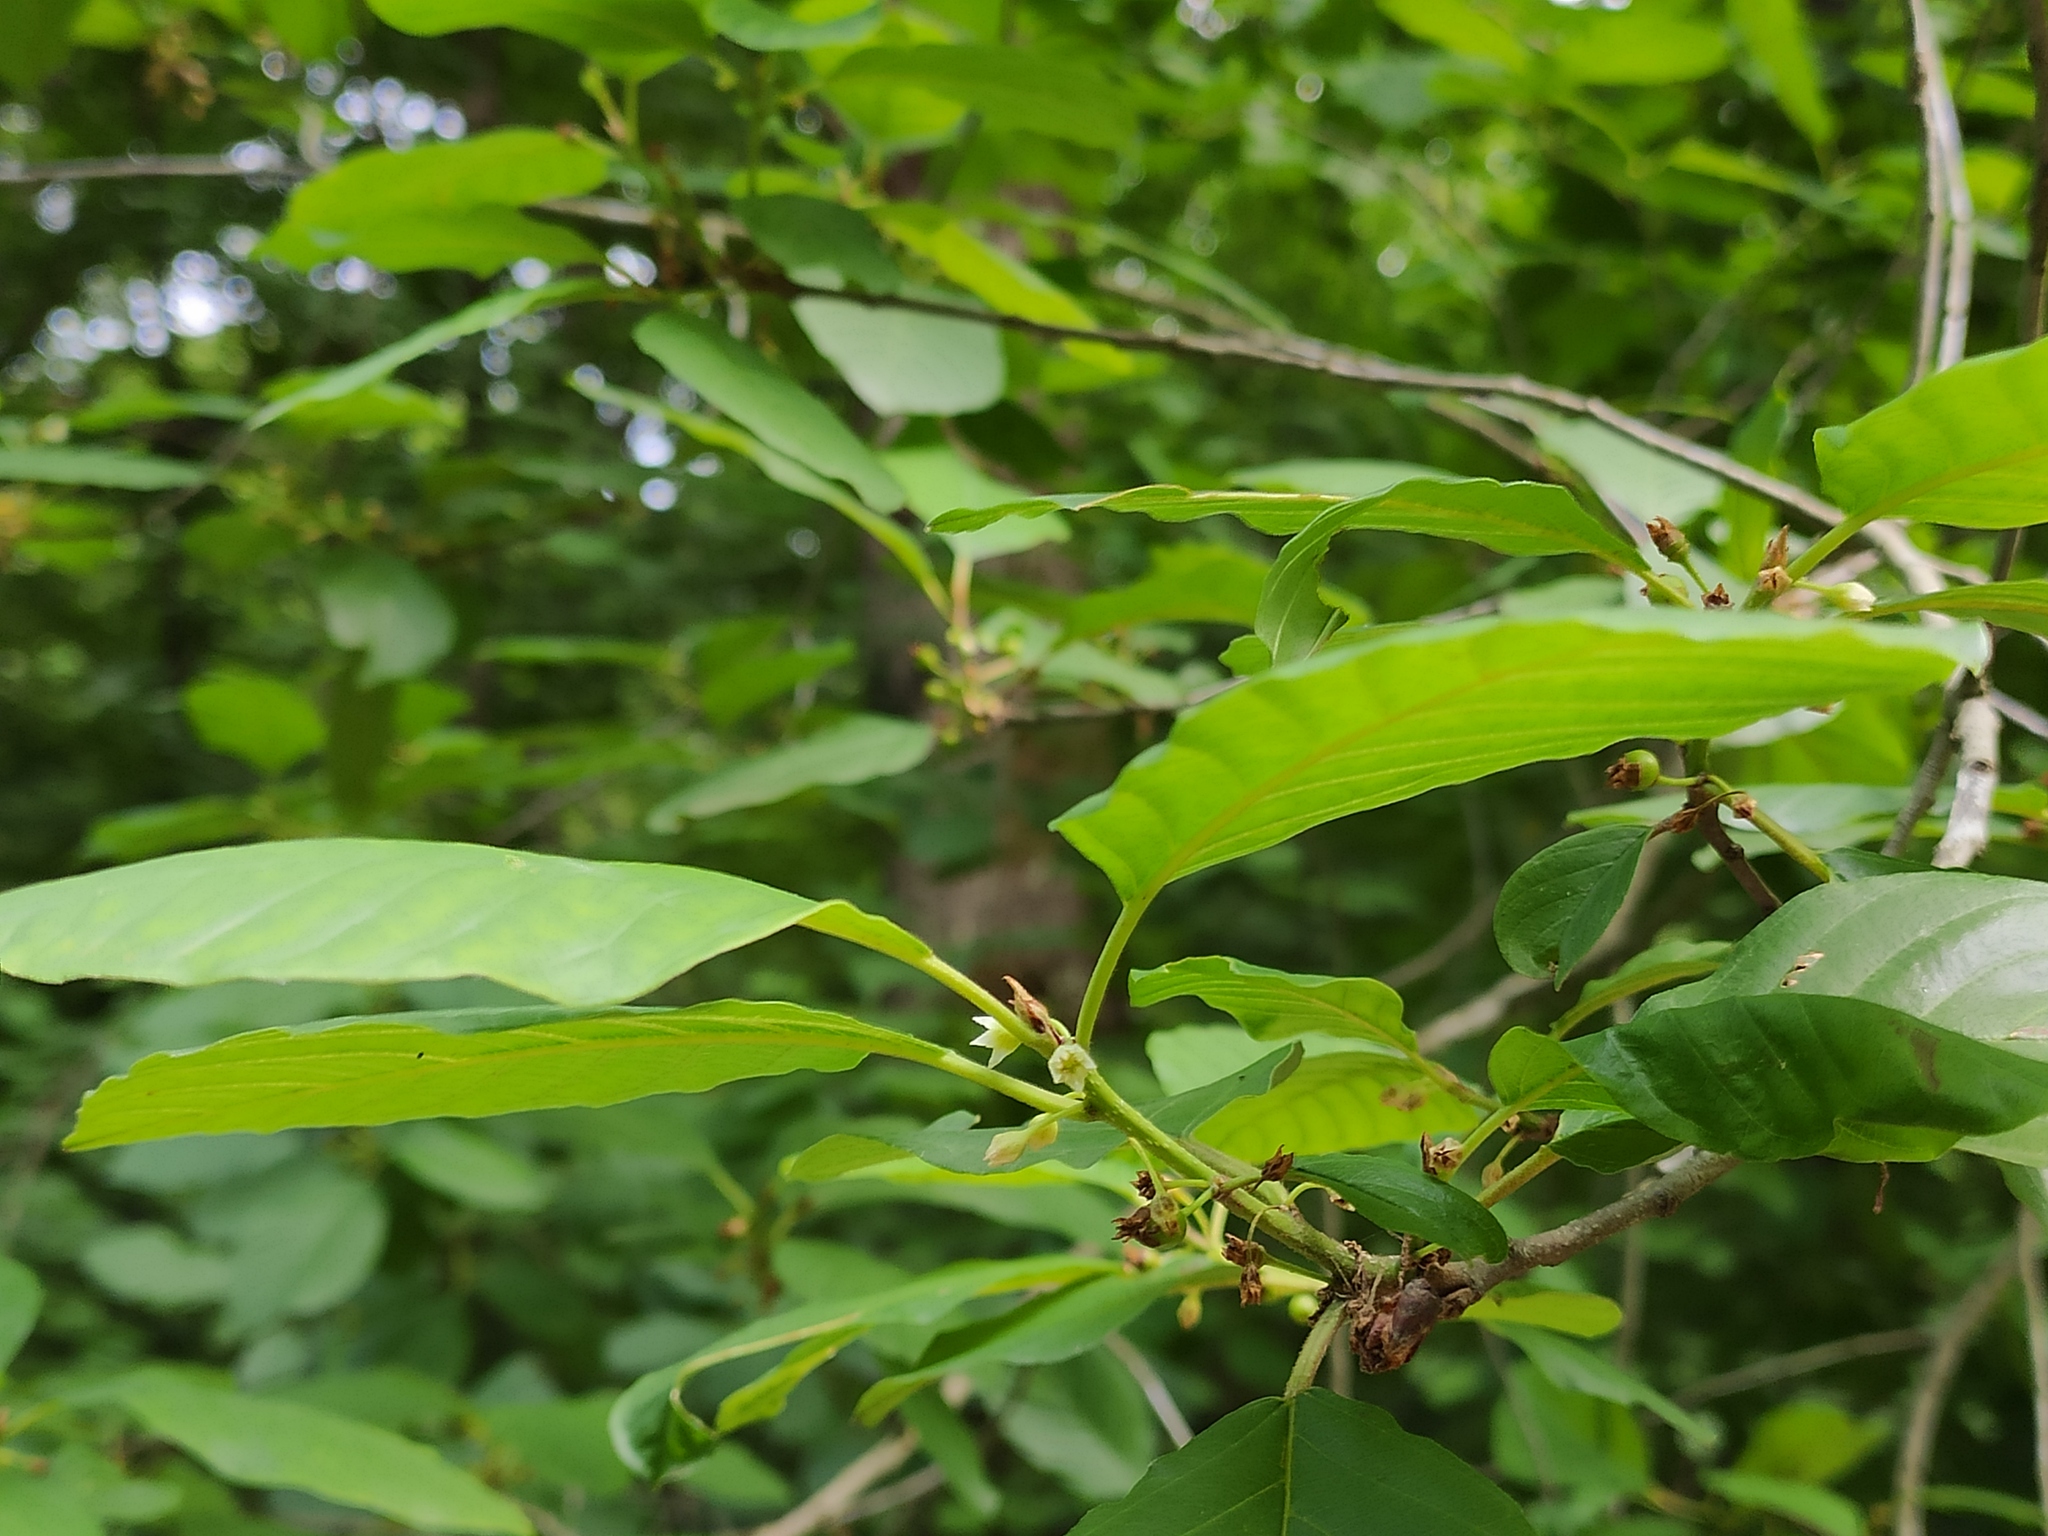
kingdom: Plantae
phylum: Tracheophyta
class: Magnoliopsida
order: Rosales
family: Rhamnaceae
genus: Frangula
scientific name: Frangula alnus
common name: Alder buckthorn
